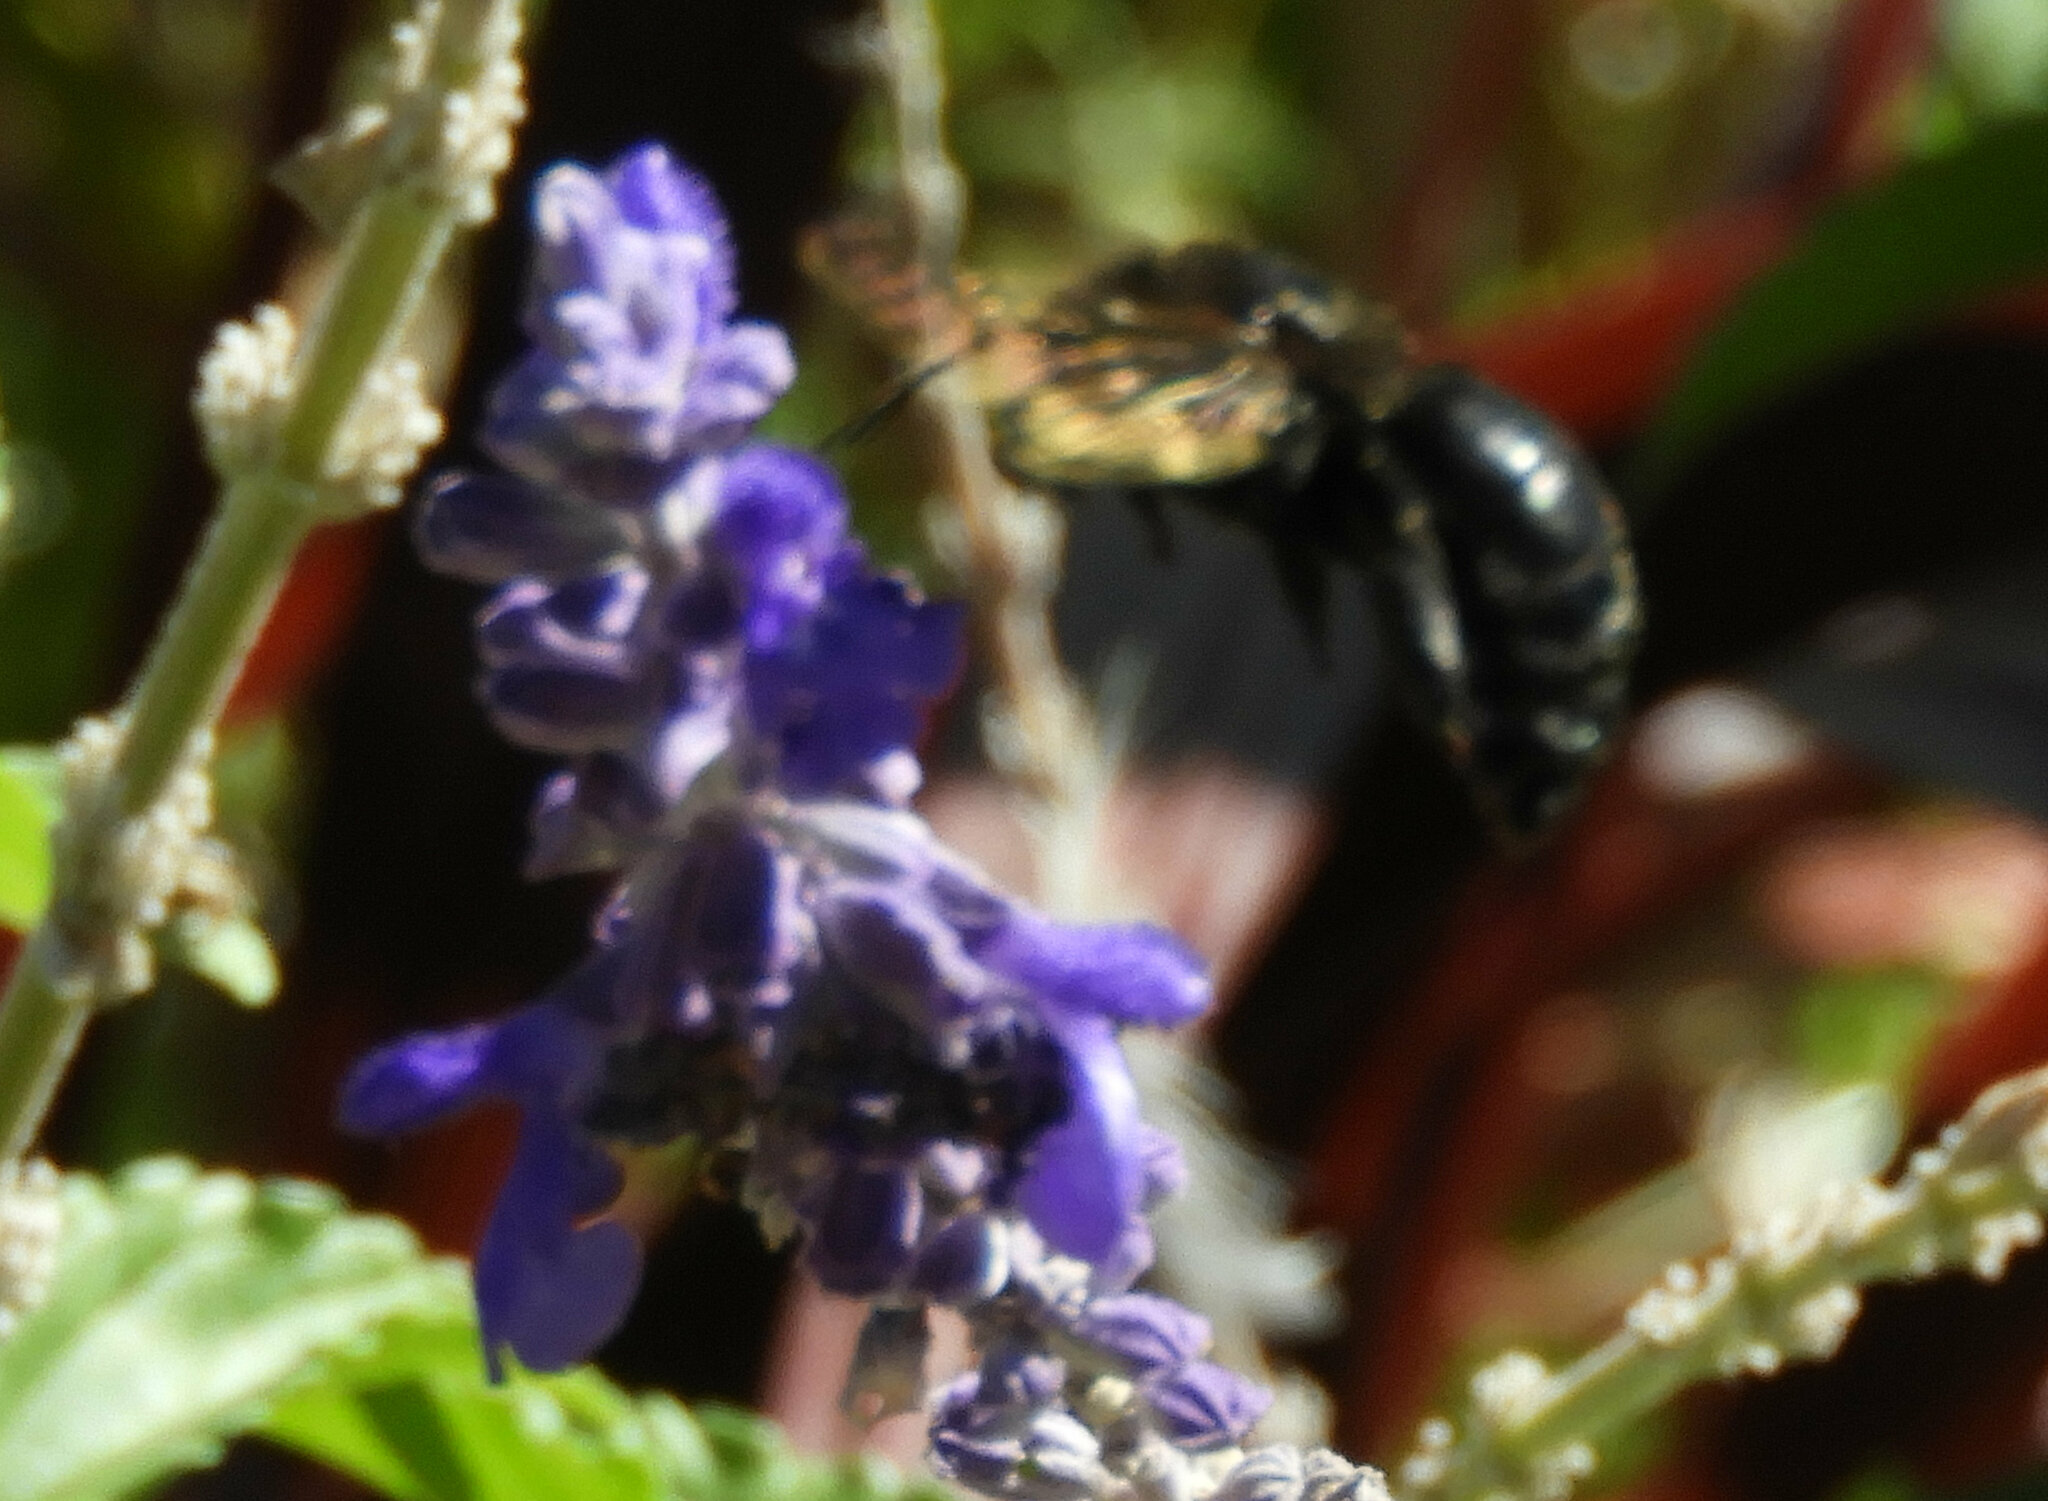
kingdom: Animalia
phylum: Arthropoda
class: Insecta
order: Hymenoptera
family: Apidae
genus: Xylocopa
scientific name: Xylocopa sonorina
